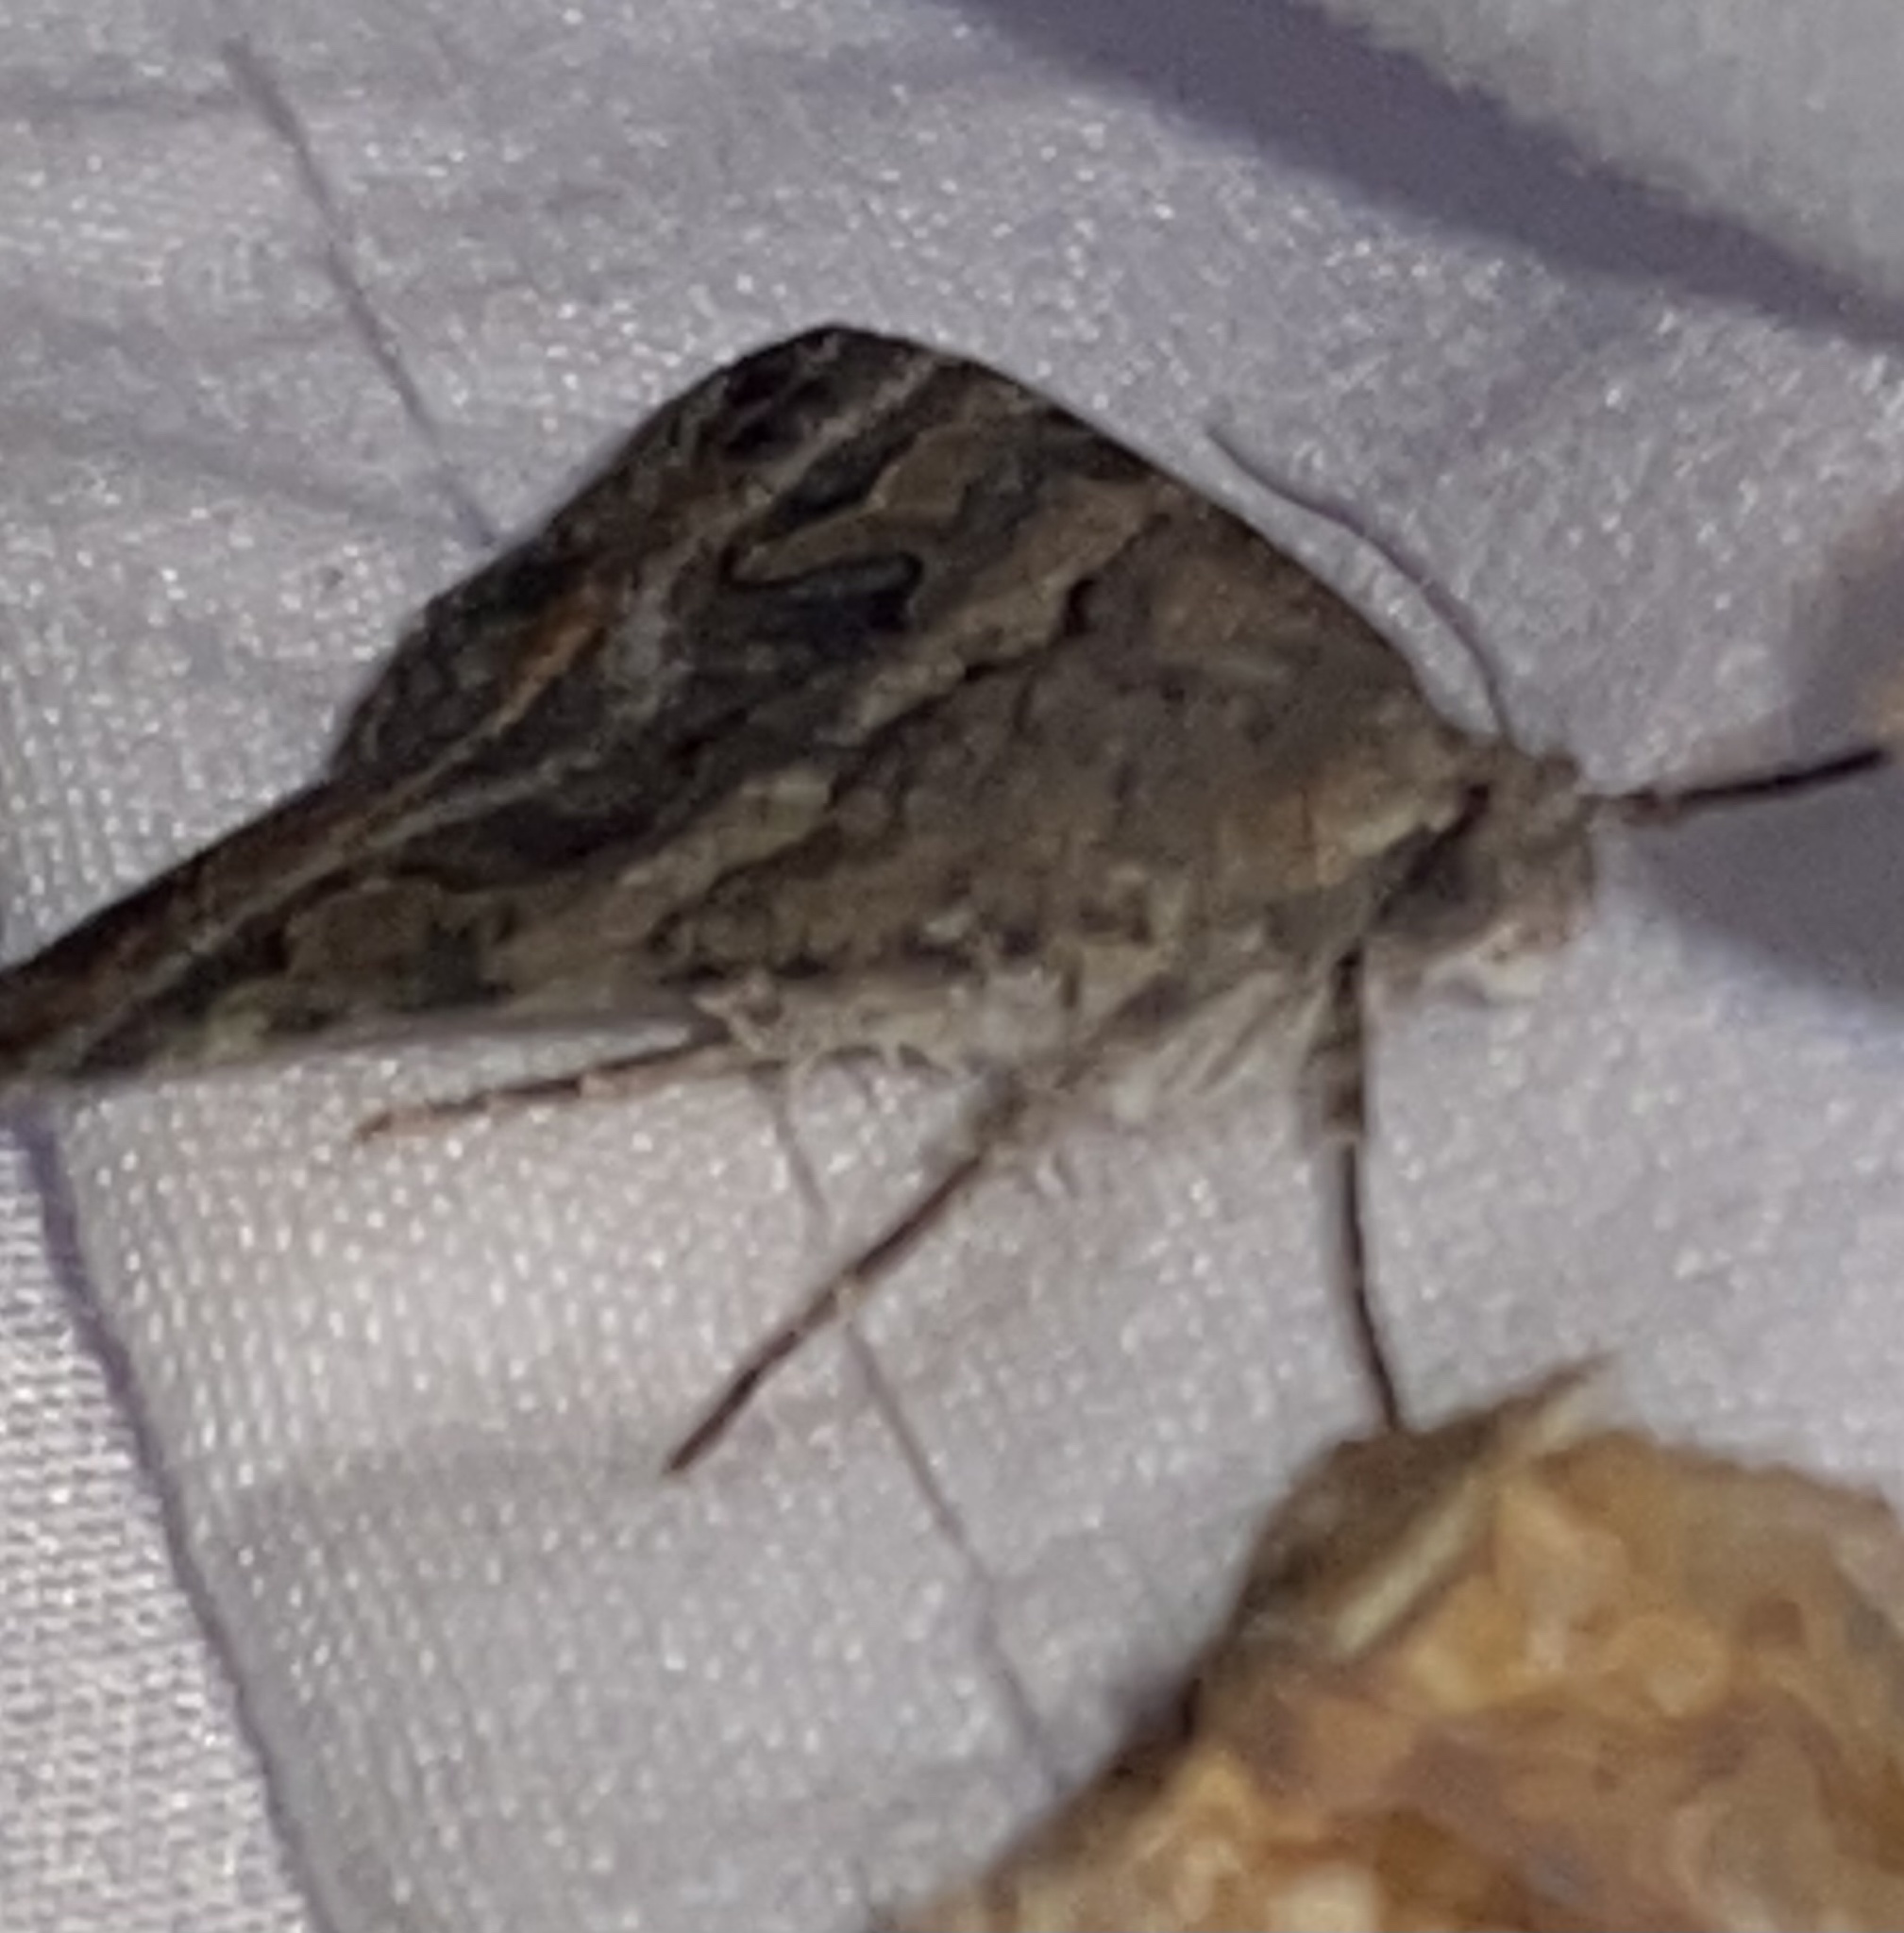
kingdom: Animalia
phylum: Arthropoda
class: Insecta
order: Lepidoptera
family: Erebidae
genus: Bulia
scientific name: Bulia deducta
